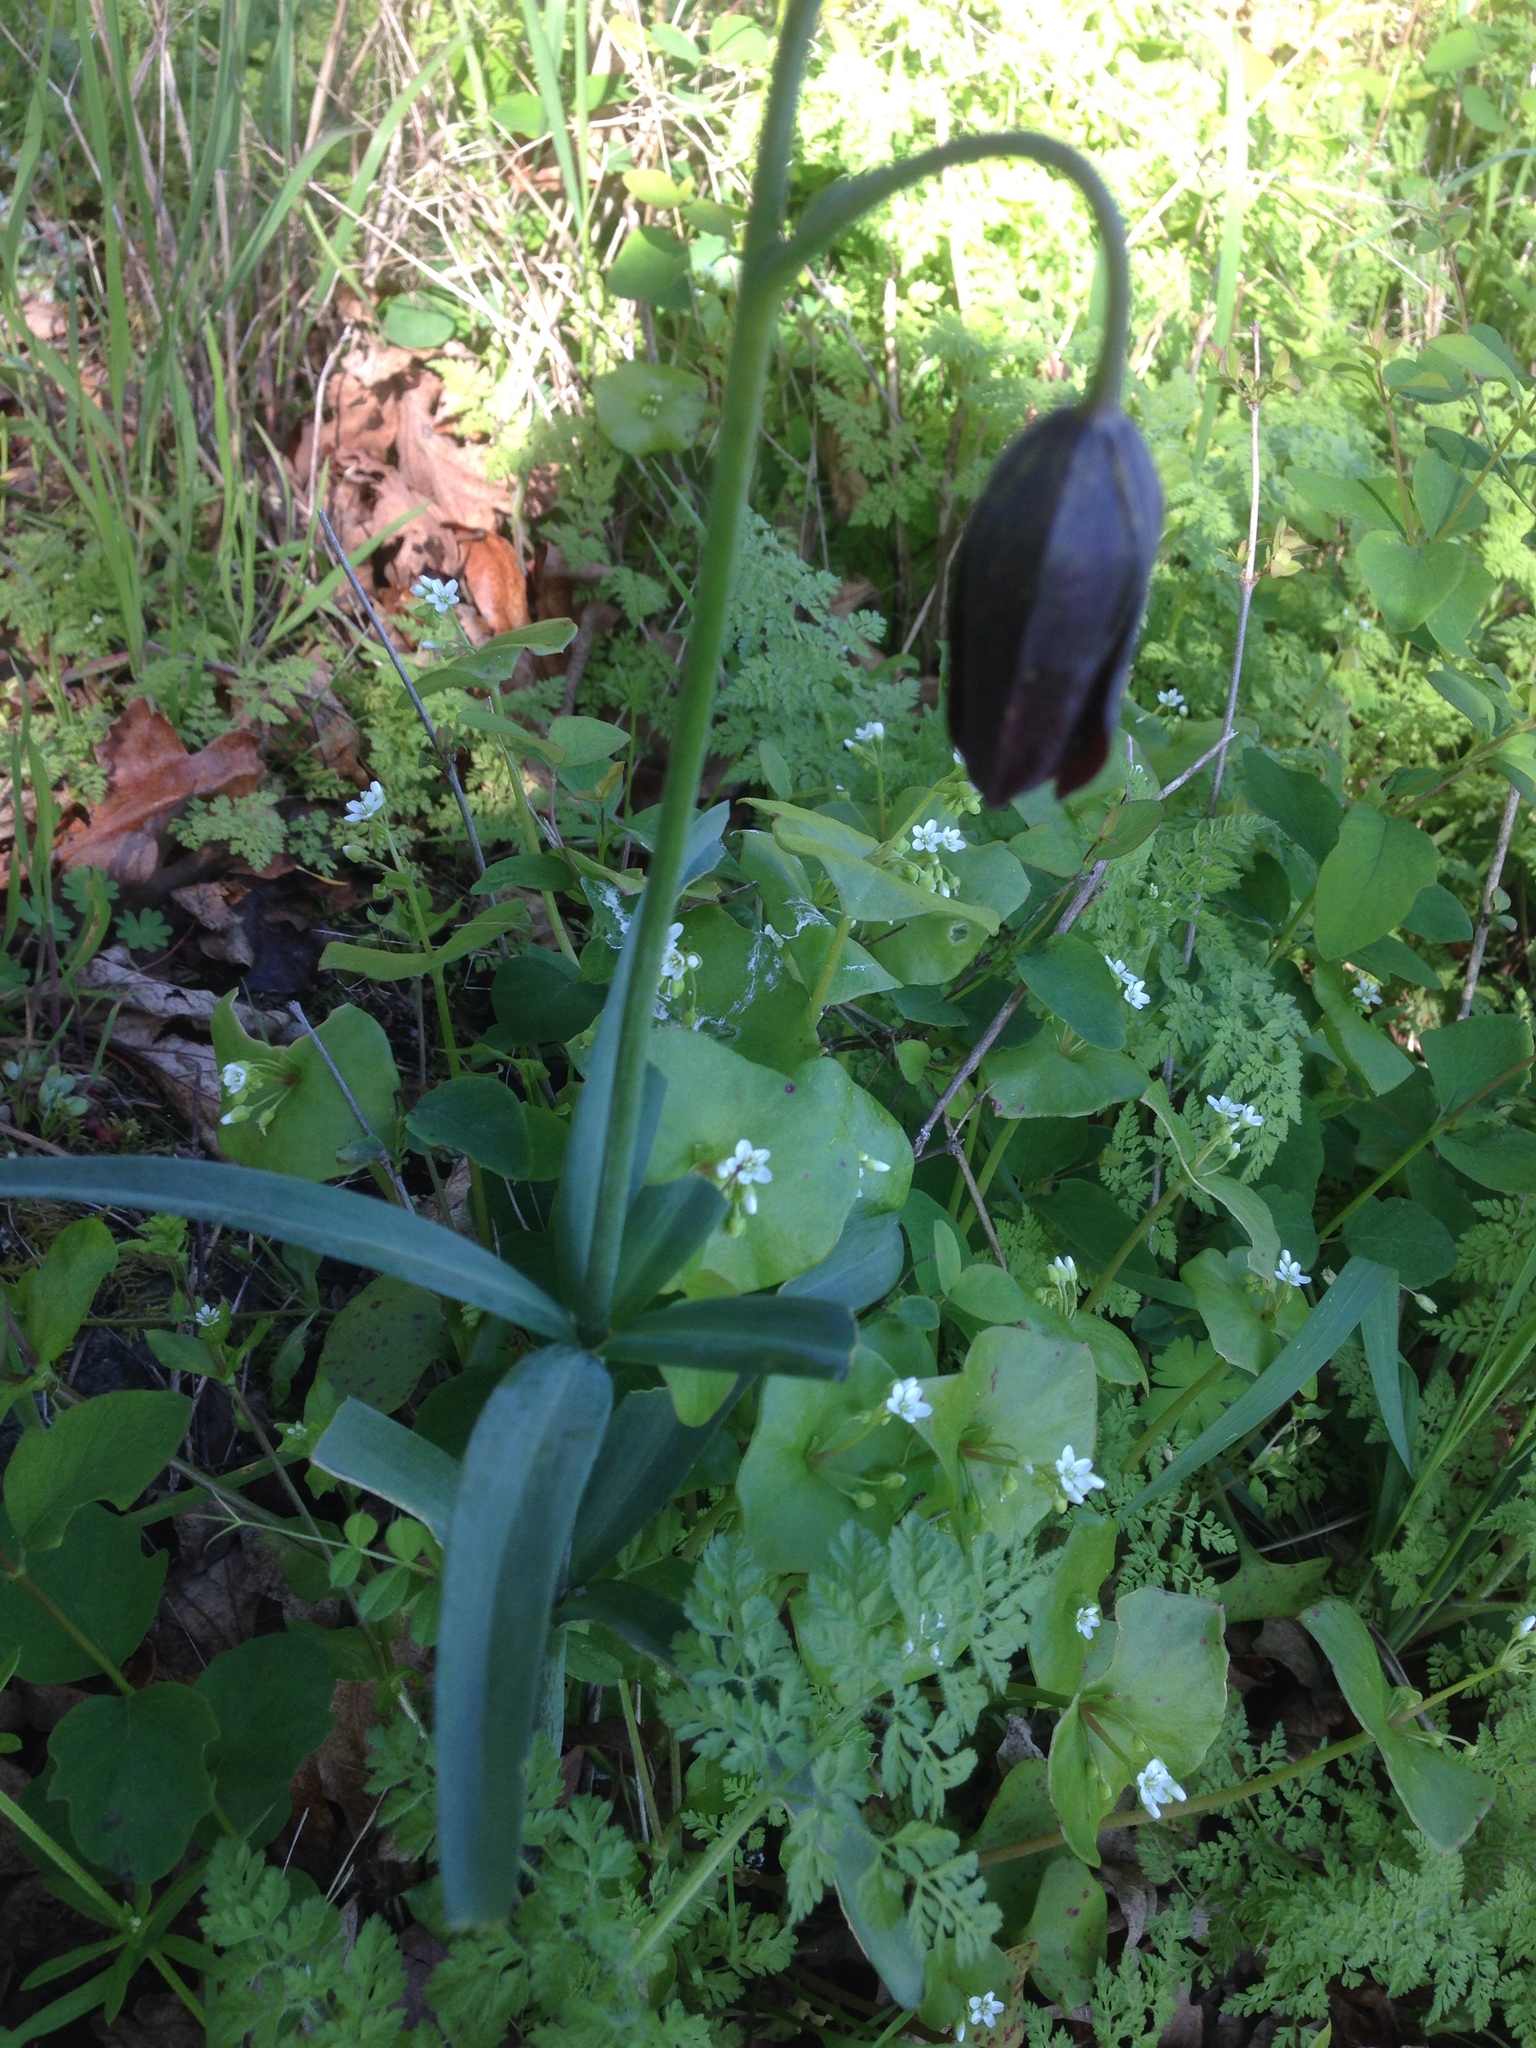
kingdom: Plantae
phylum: Tracheophyta
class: Liliopsida
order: Liliales
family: Liliaceae
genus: Fritillaria
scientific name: Fritillaria affinis
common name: Ojai fritillary
